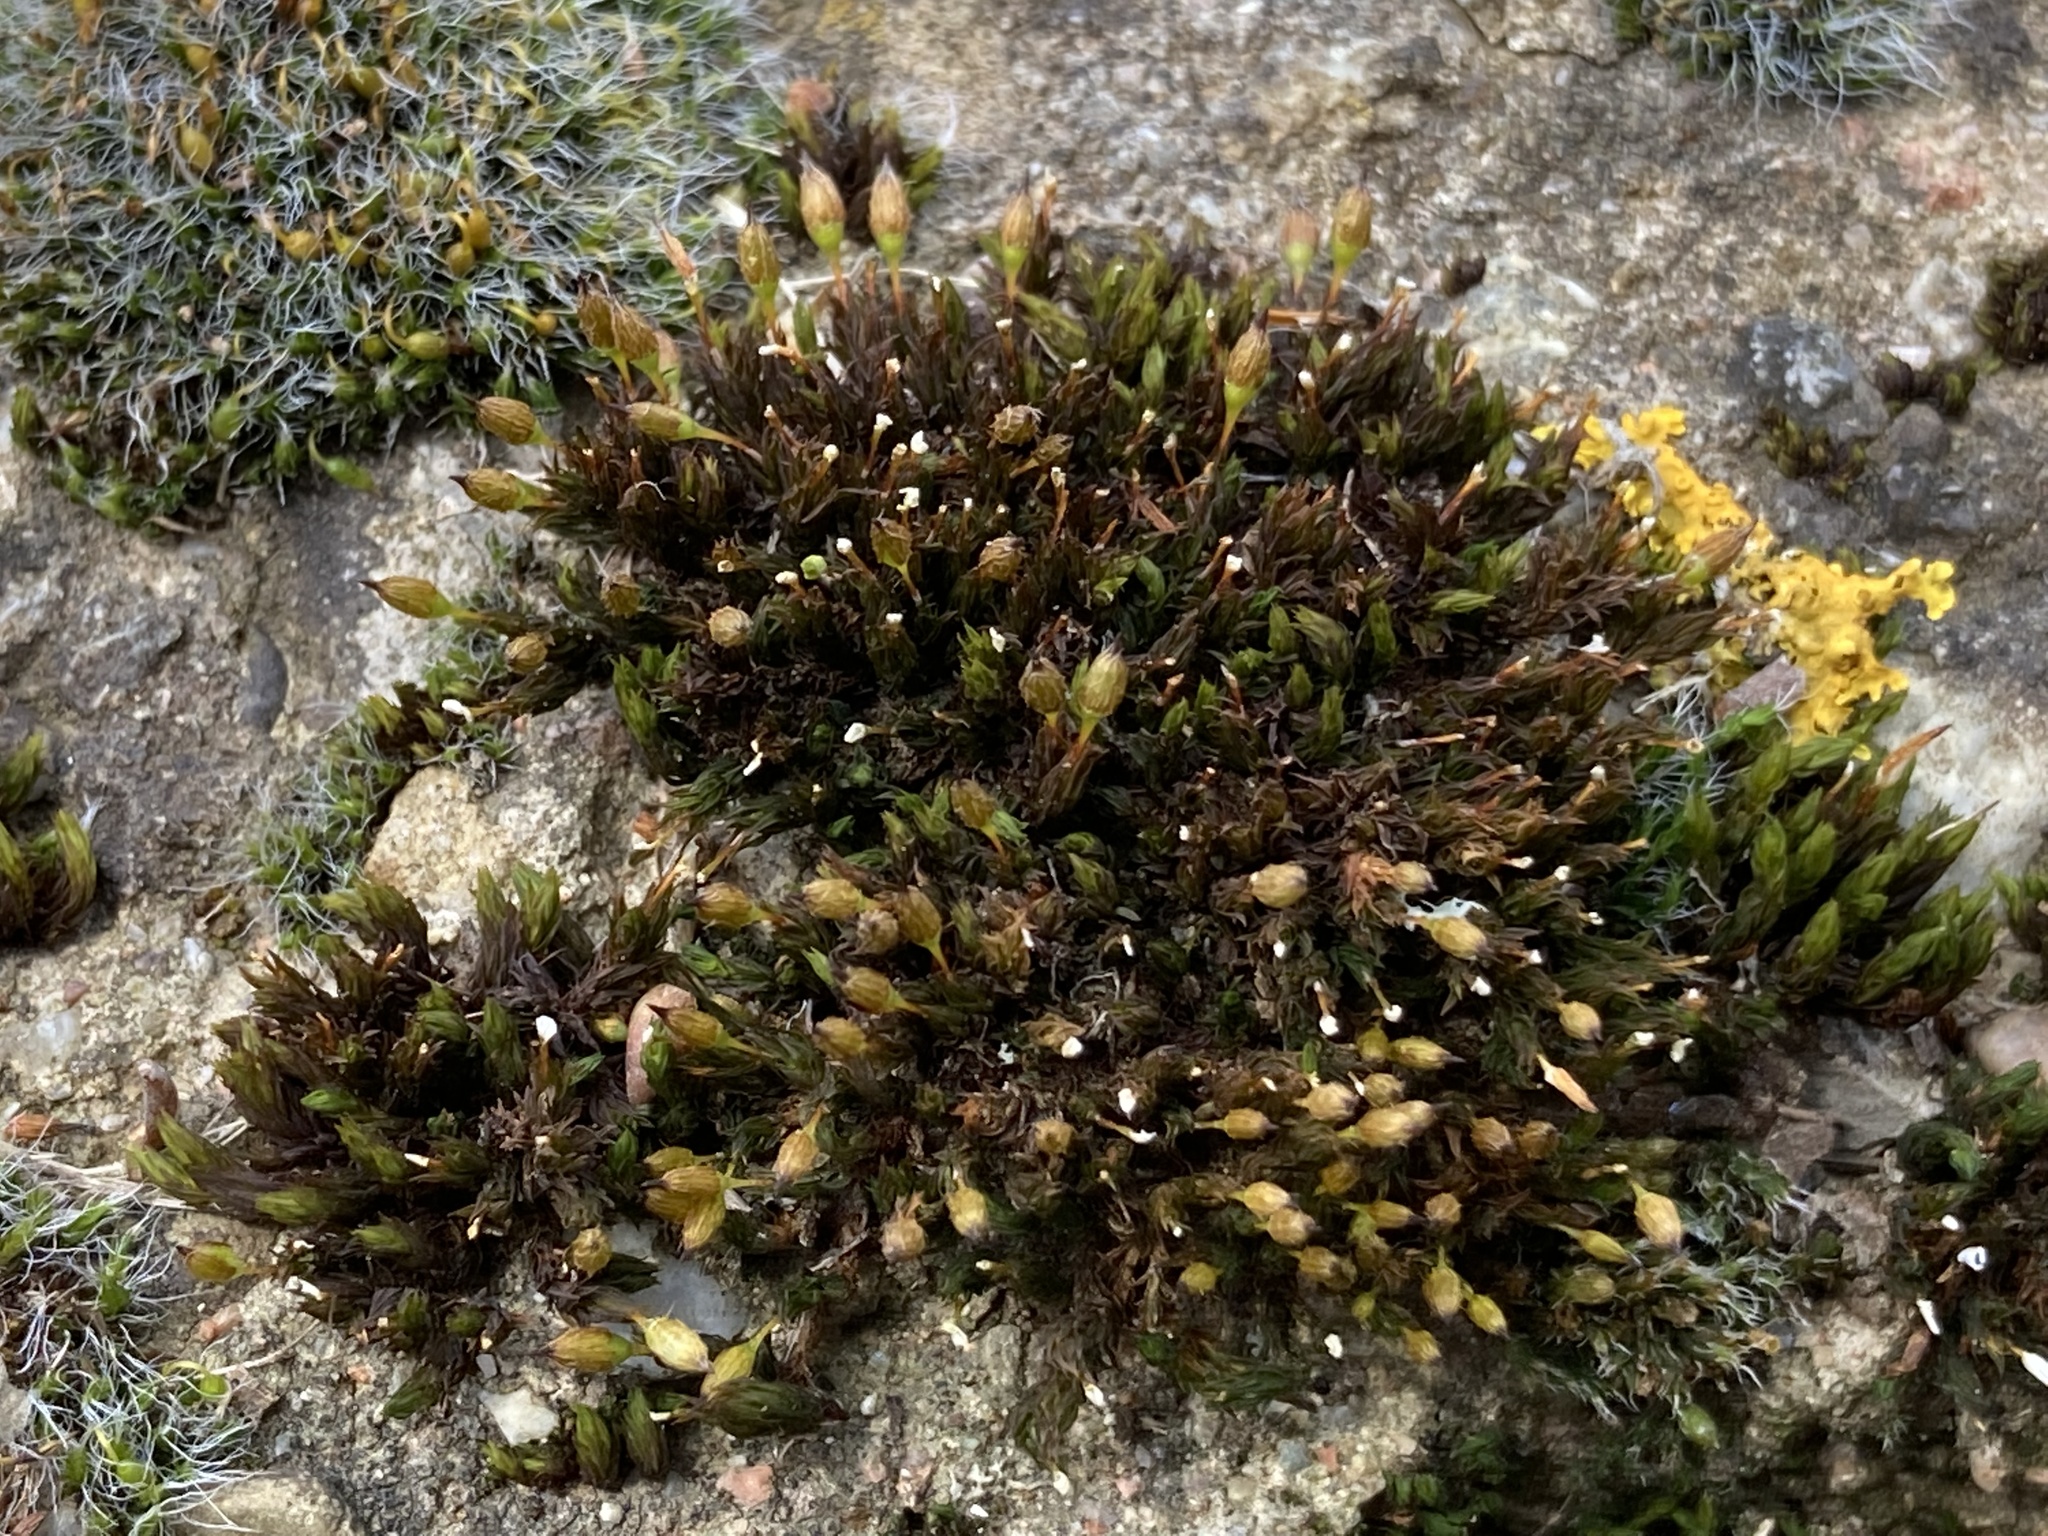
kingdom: Plantae
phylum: Bryophyta
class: Bryopsida
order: Orthotrichales
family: Orthotrichaceae
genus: Orthotrichum
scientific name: Orthotrichum anomalum
